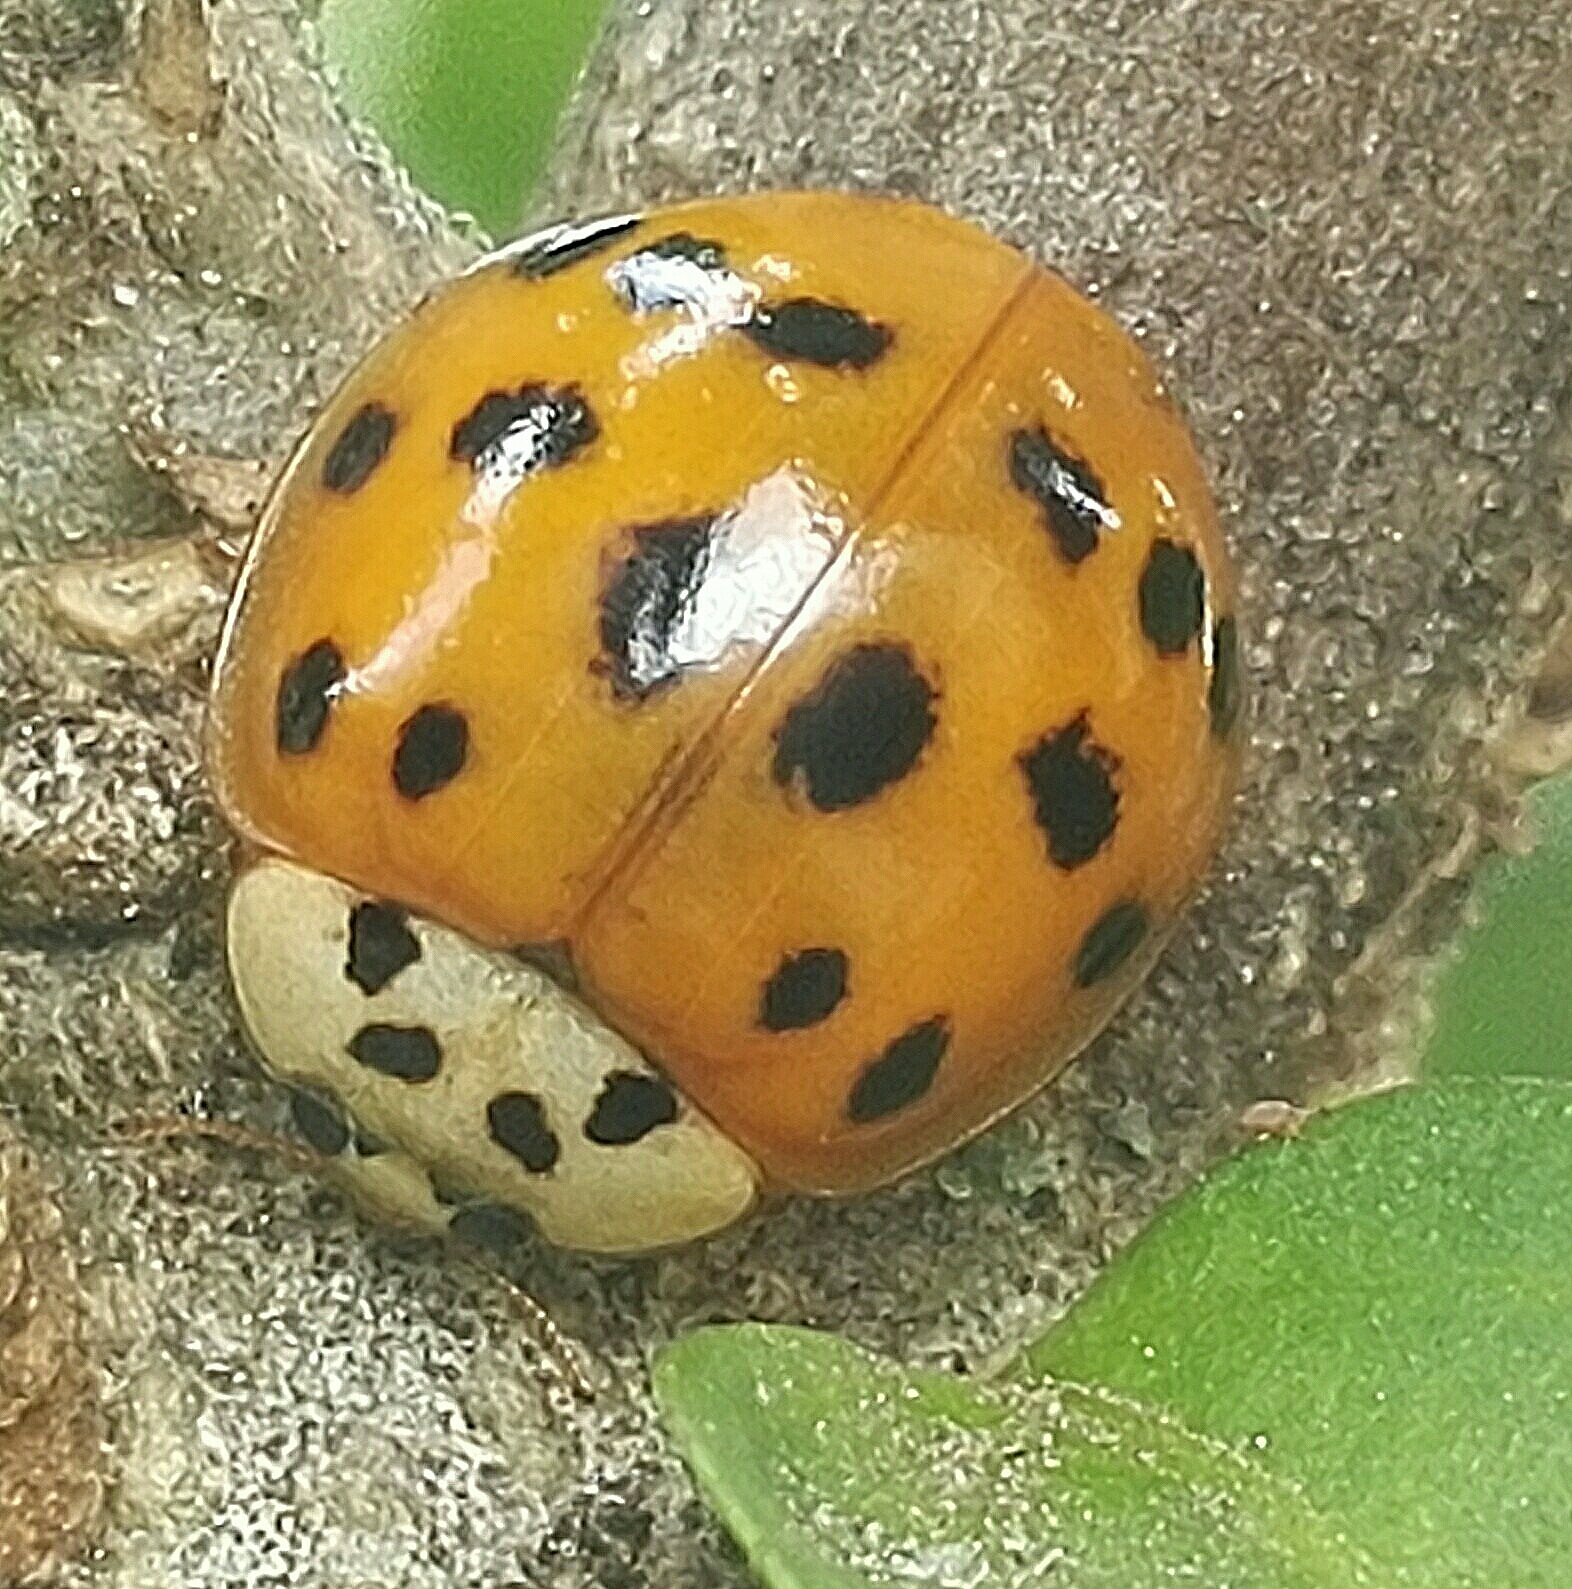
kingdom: Animalia
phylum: Arthropoda
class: Insecta
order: Coleoptera
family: Coccinellidae
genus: Harmonia
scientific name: Harmonia axyridis
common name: Harlequin ladybird
